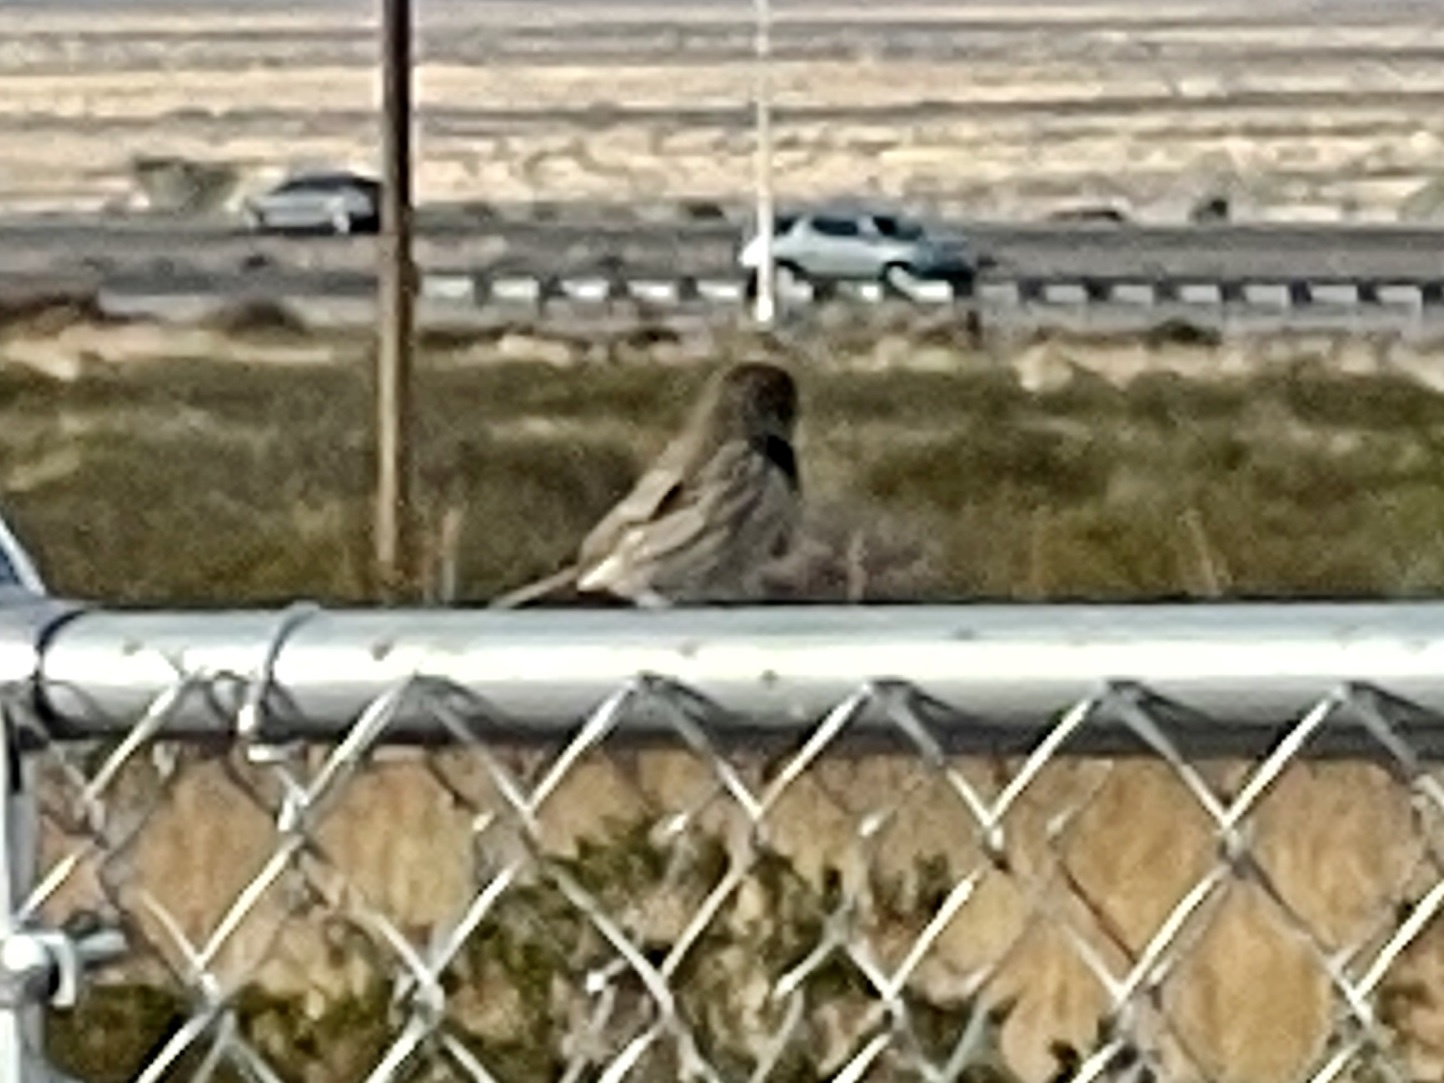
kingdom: Animalia
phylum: Chordata
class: Aves
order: Passeriformes
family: Passerellidae
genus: Calamospiza
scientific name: Calamospiza melanocorys
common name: Lark bunting
